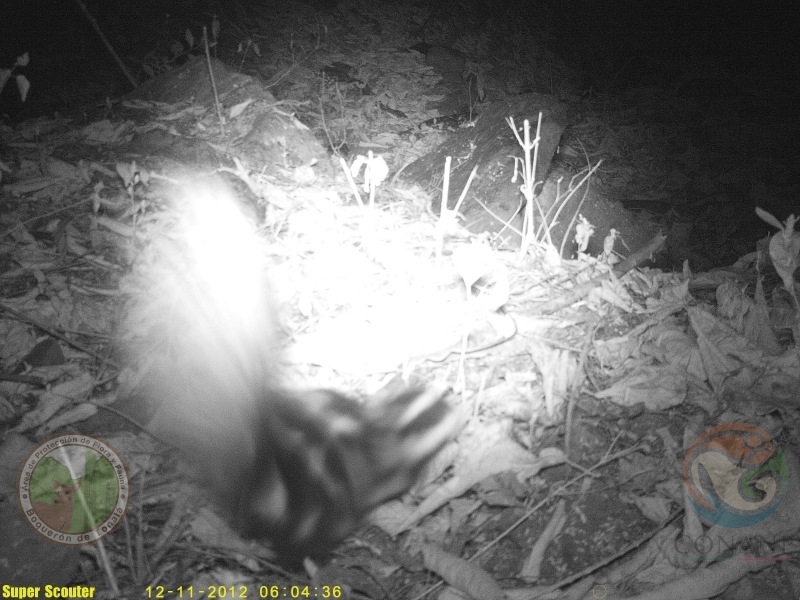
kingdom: Animalia
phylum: Chordata
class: Mammalia
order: Carnivora
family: Mephitidae
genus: Spilogale
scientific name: Spilogale angustifrons
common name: Southern spotted skunk
